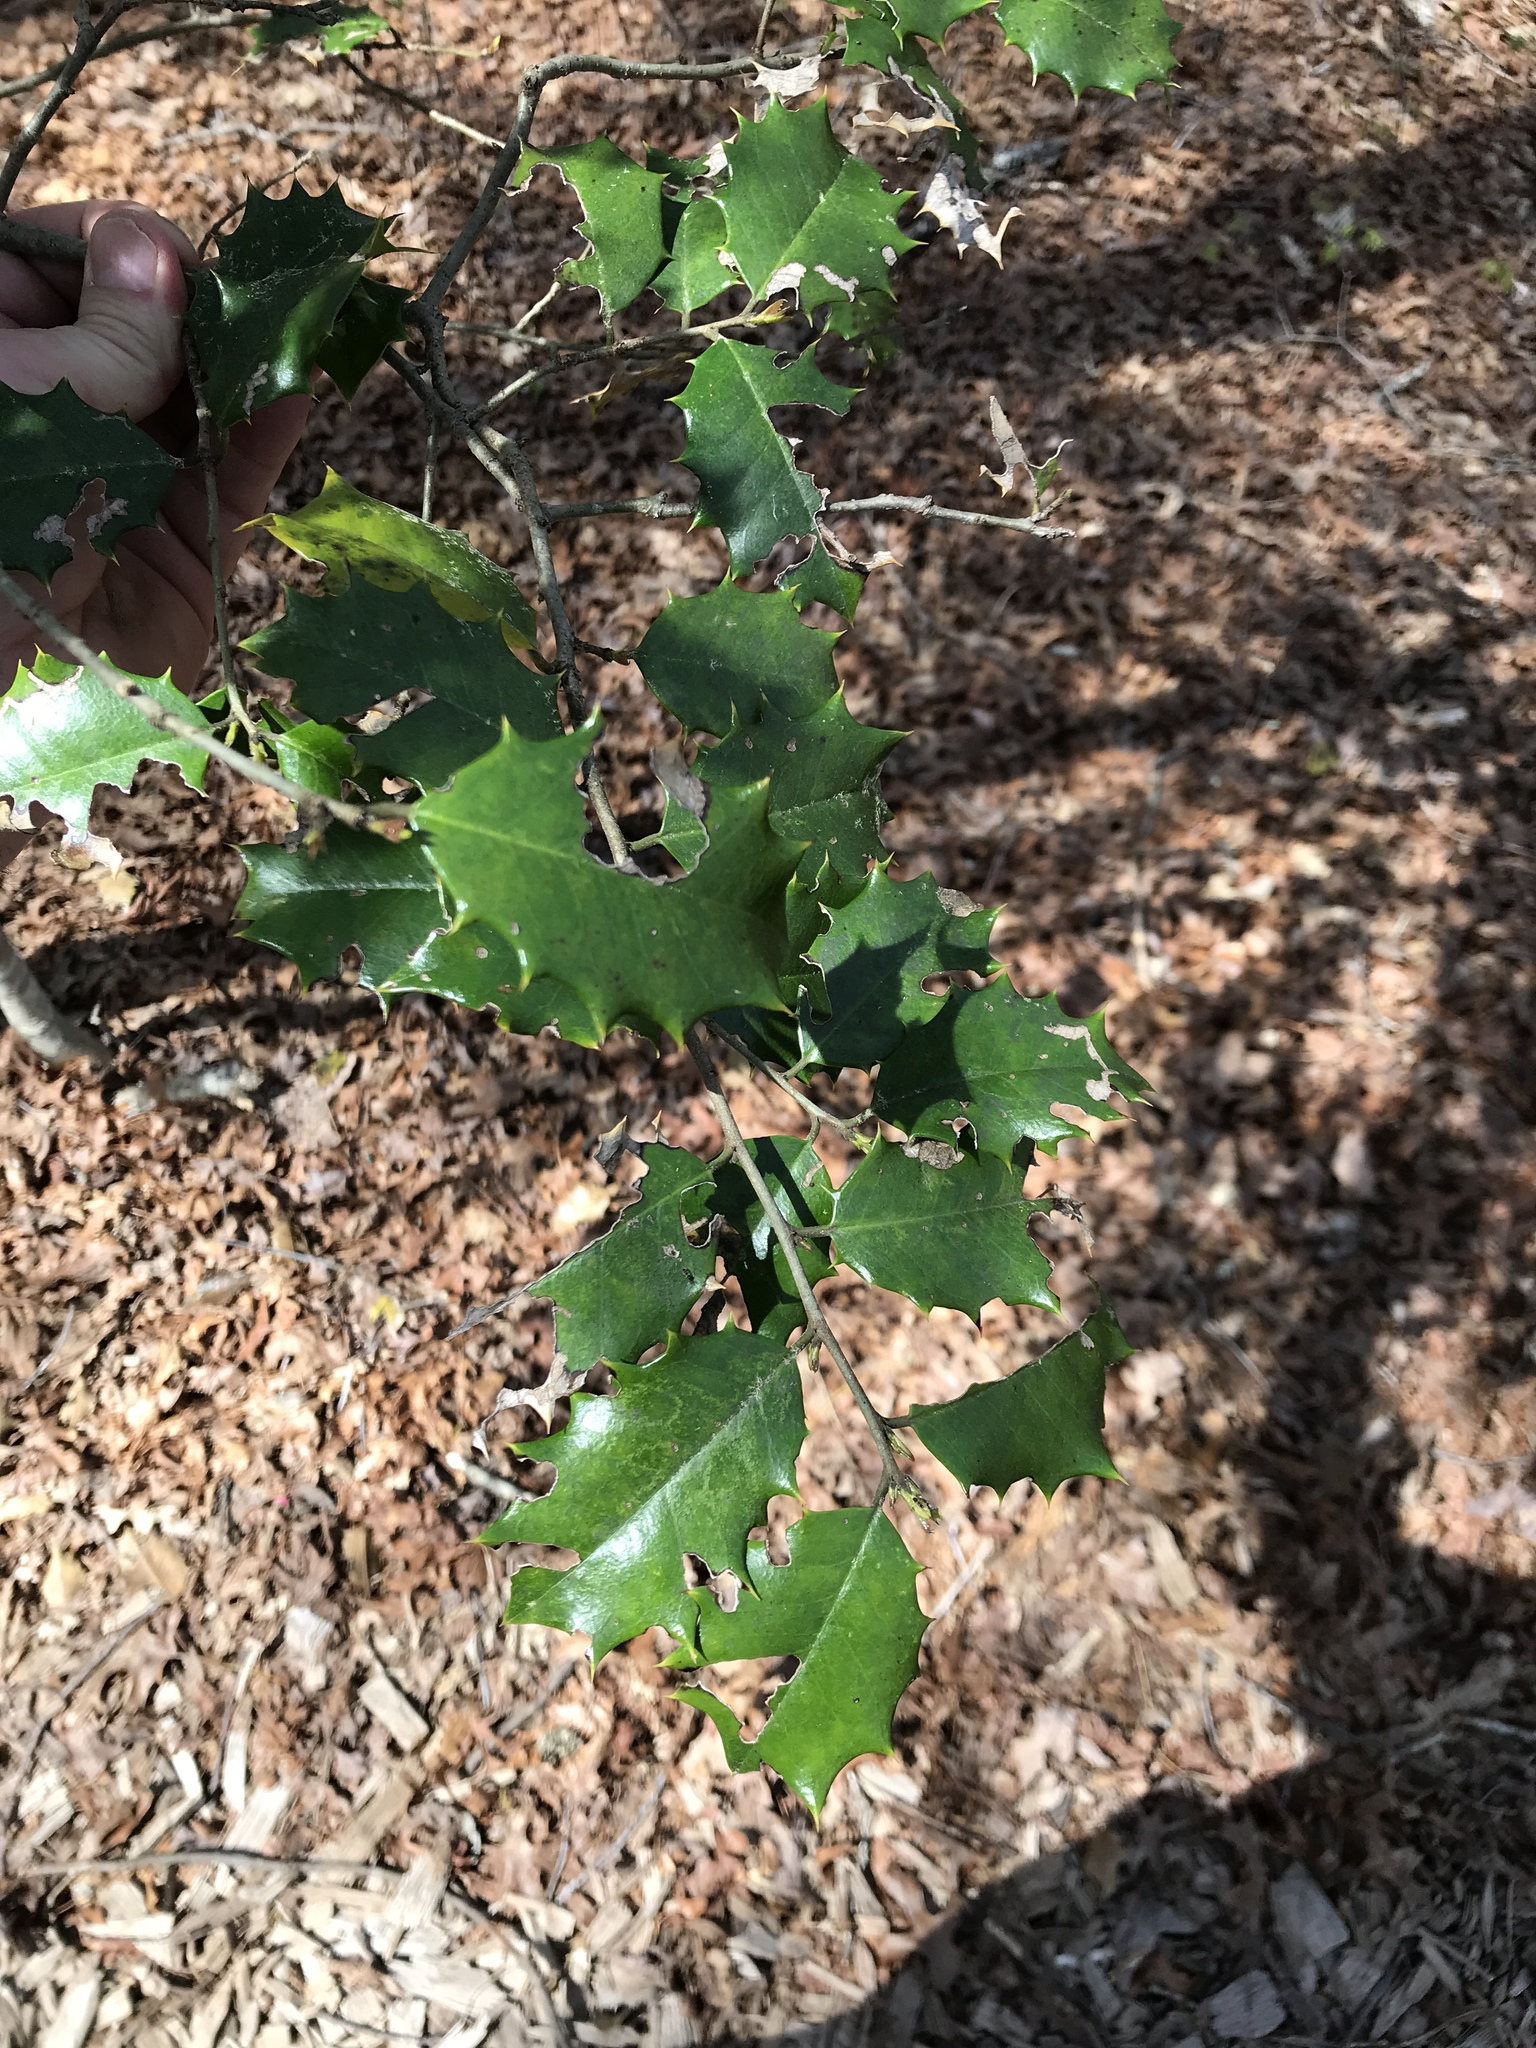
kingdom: Plantae
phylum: Tracheophyta
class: Magnoliopsida
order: Aquifoliales
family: Aquifoliaceae
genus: Ilex
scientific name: Ilex opaca
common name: American holly
